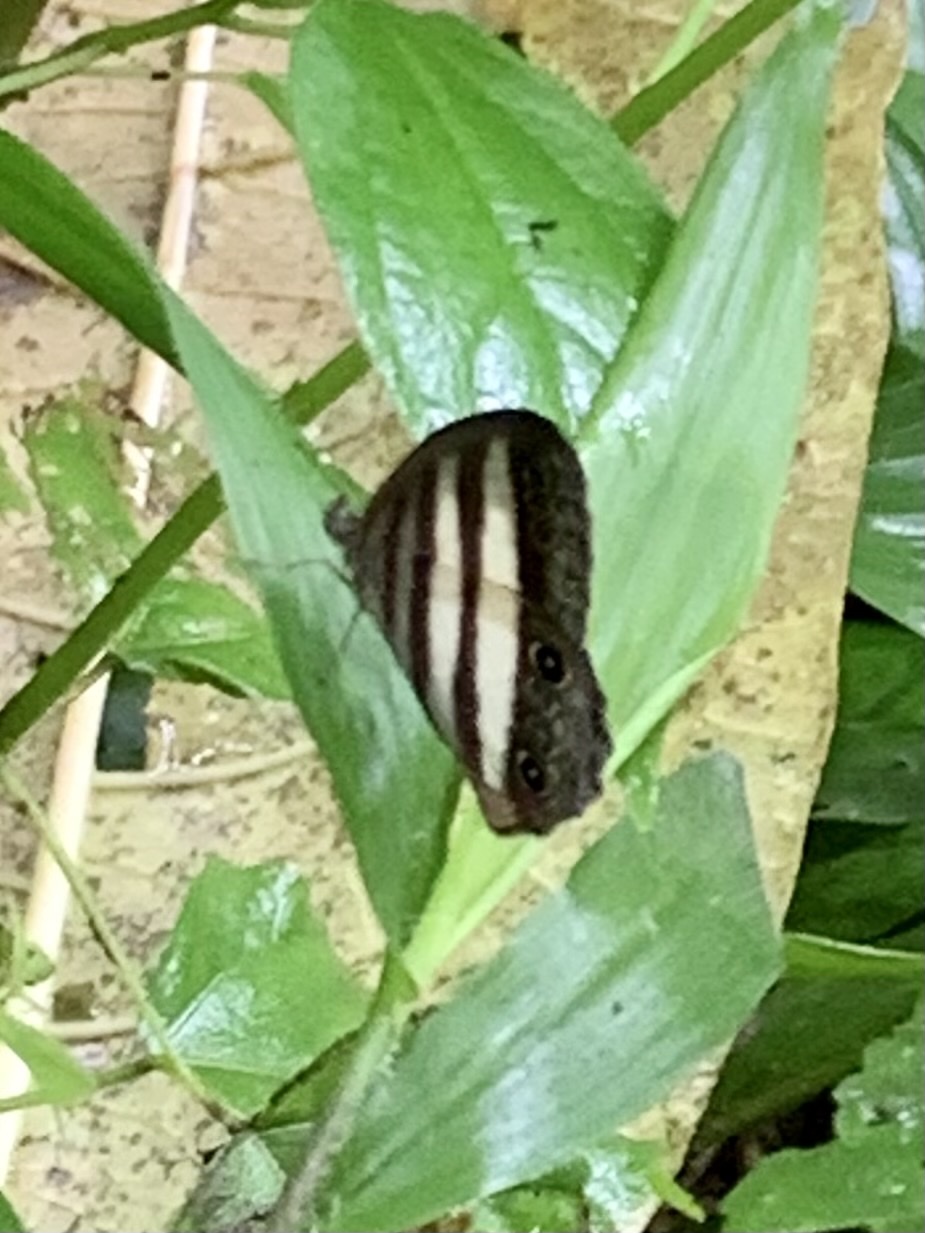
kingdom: Animalia
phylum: Arthropoda
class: Insecta
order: Lepidoptera
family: Nymphalidae
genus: Pareuptychia
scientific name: Pareuptychia hesione
